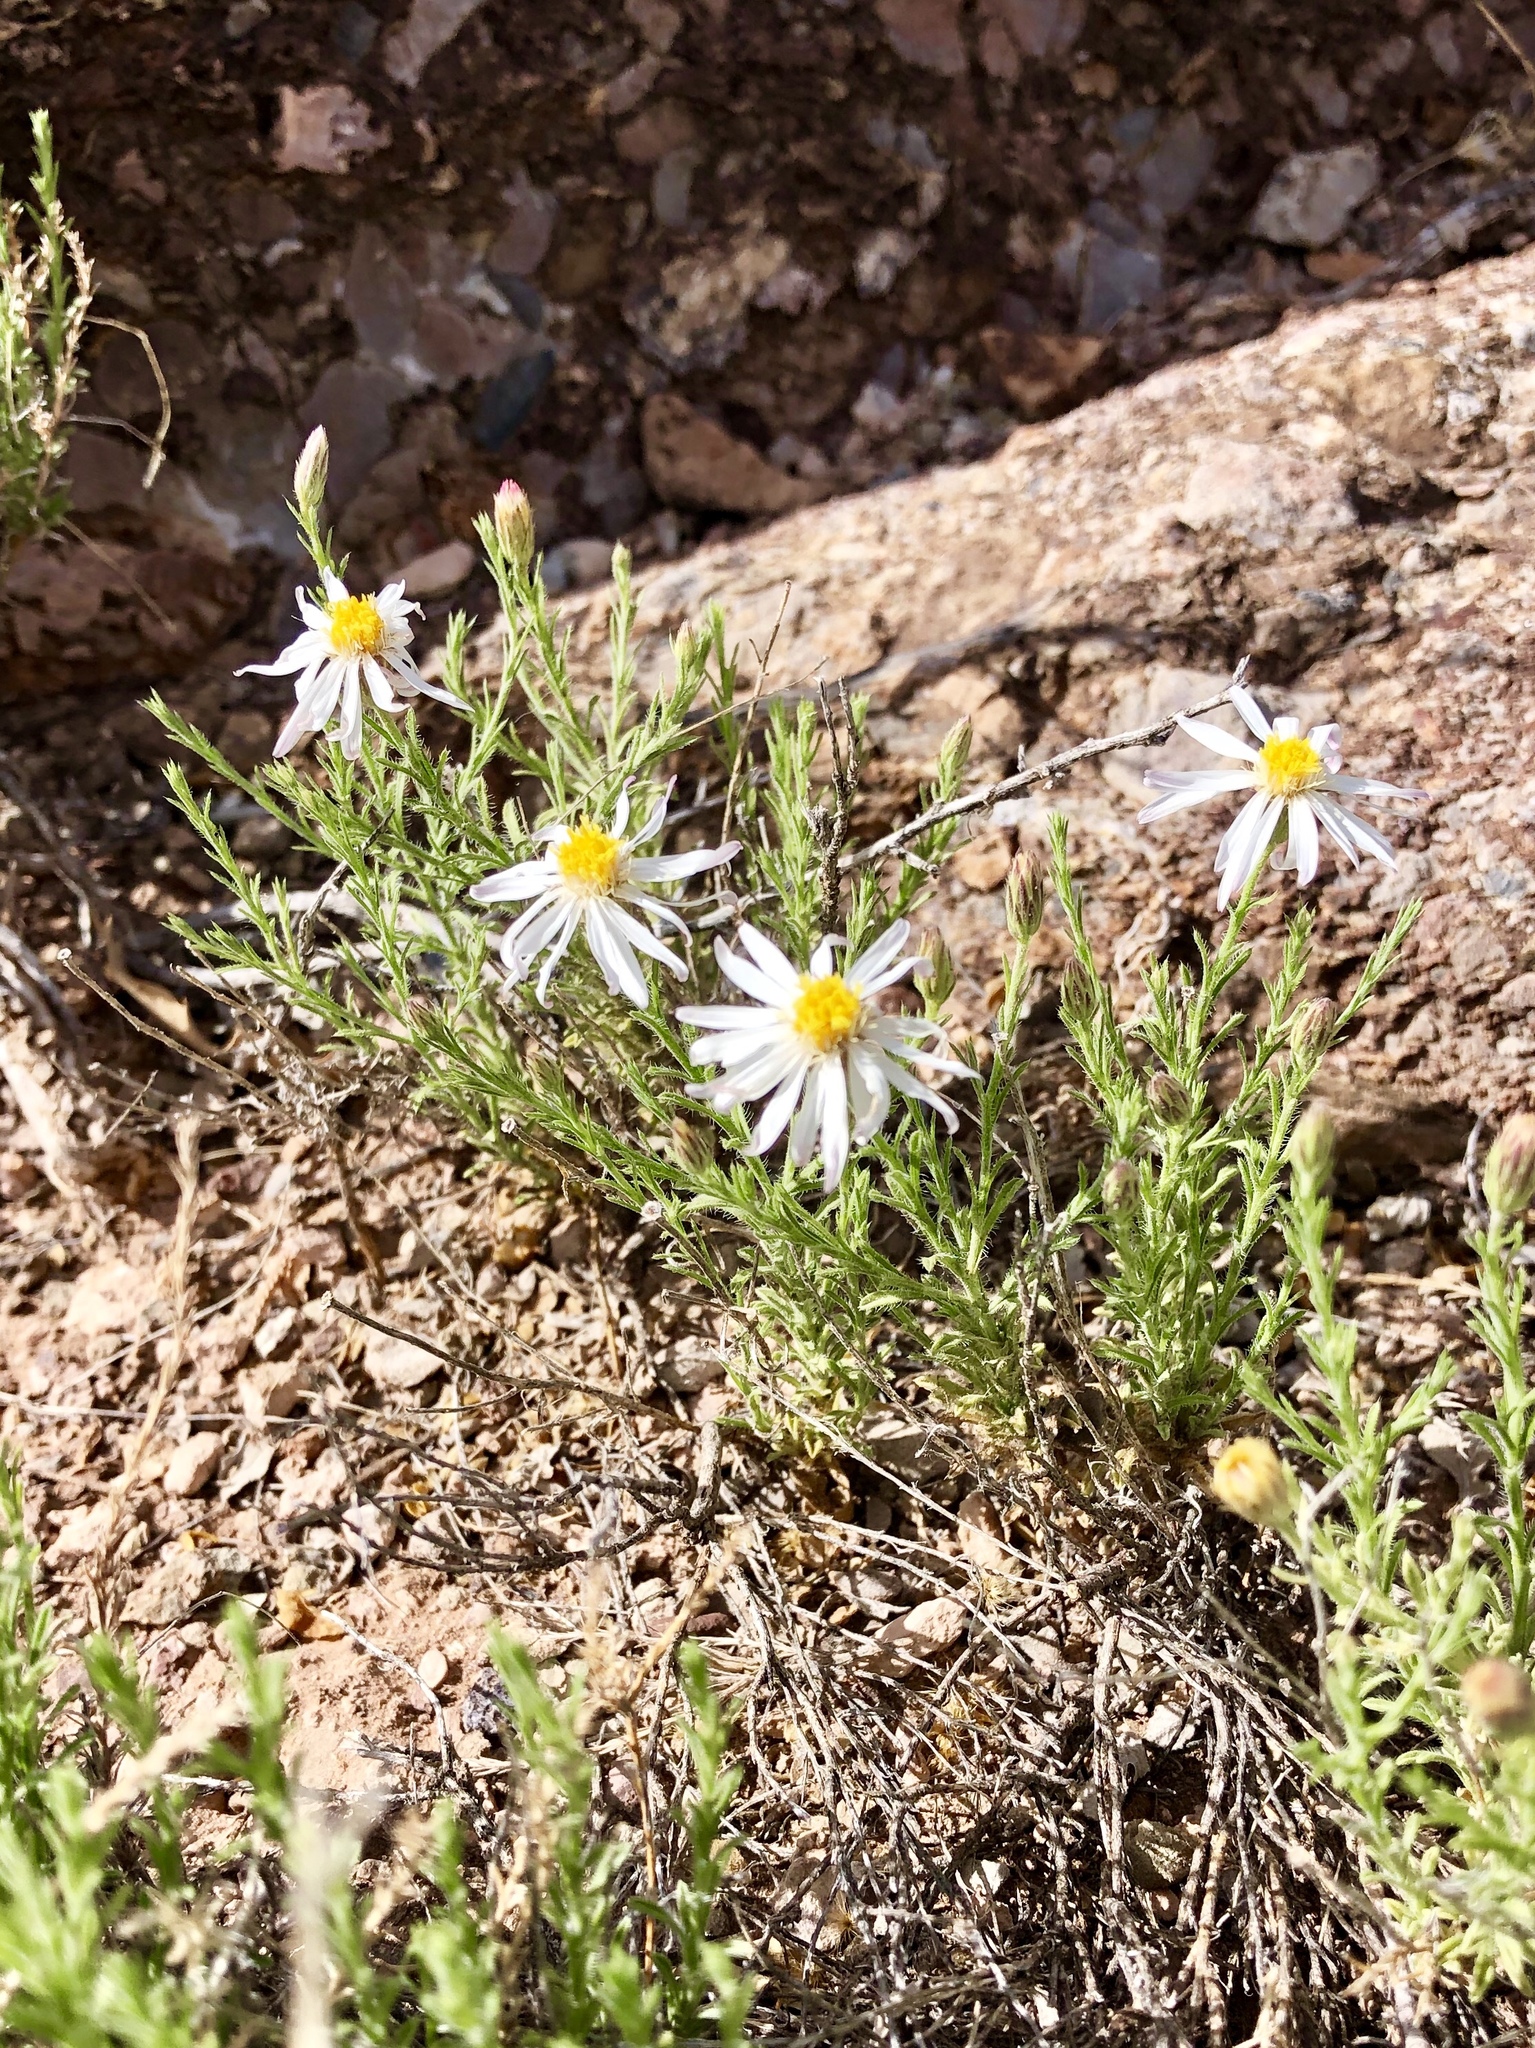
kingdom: Plantae
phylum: Tracheophyta
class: Magnoliopsida
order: Asterales
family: Asteraceae
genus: Chaetopappa
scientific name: Chaetopappa ericoides
